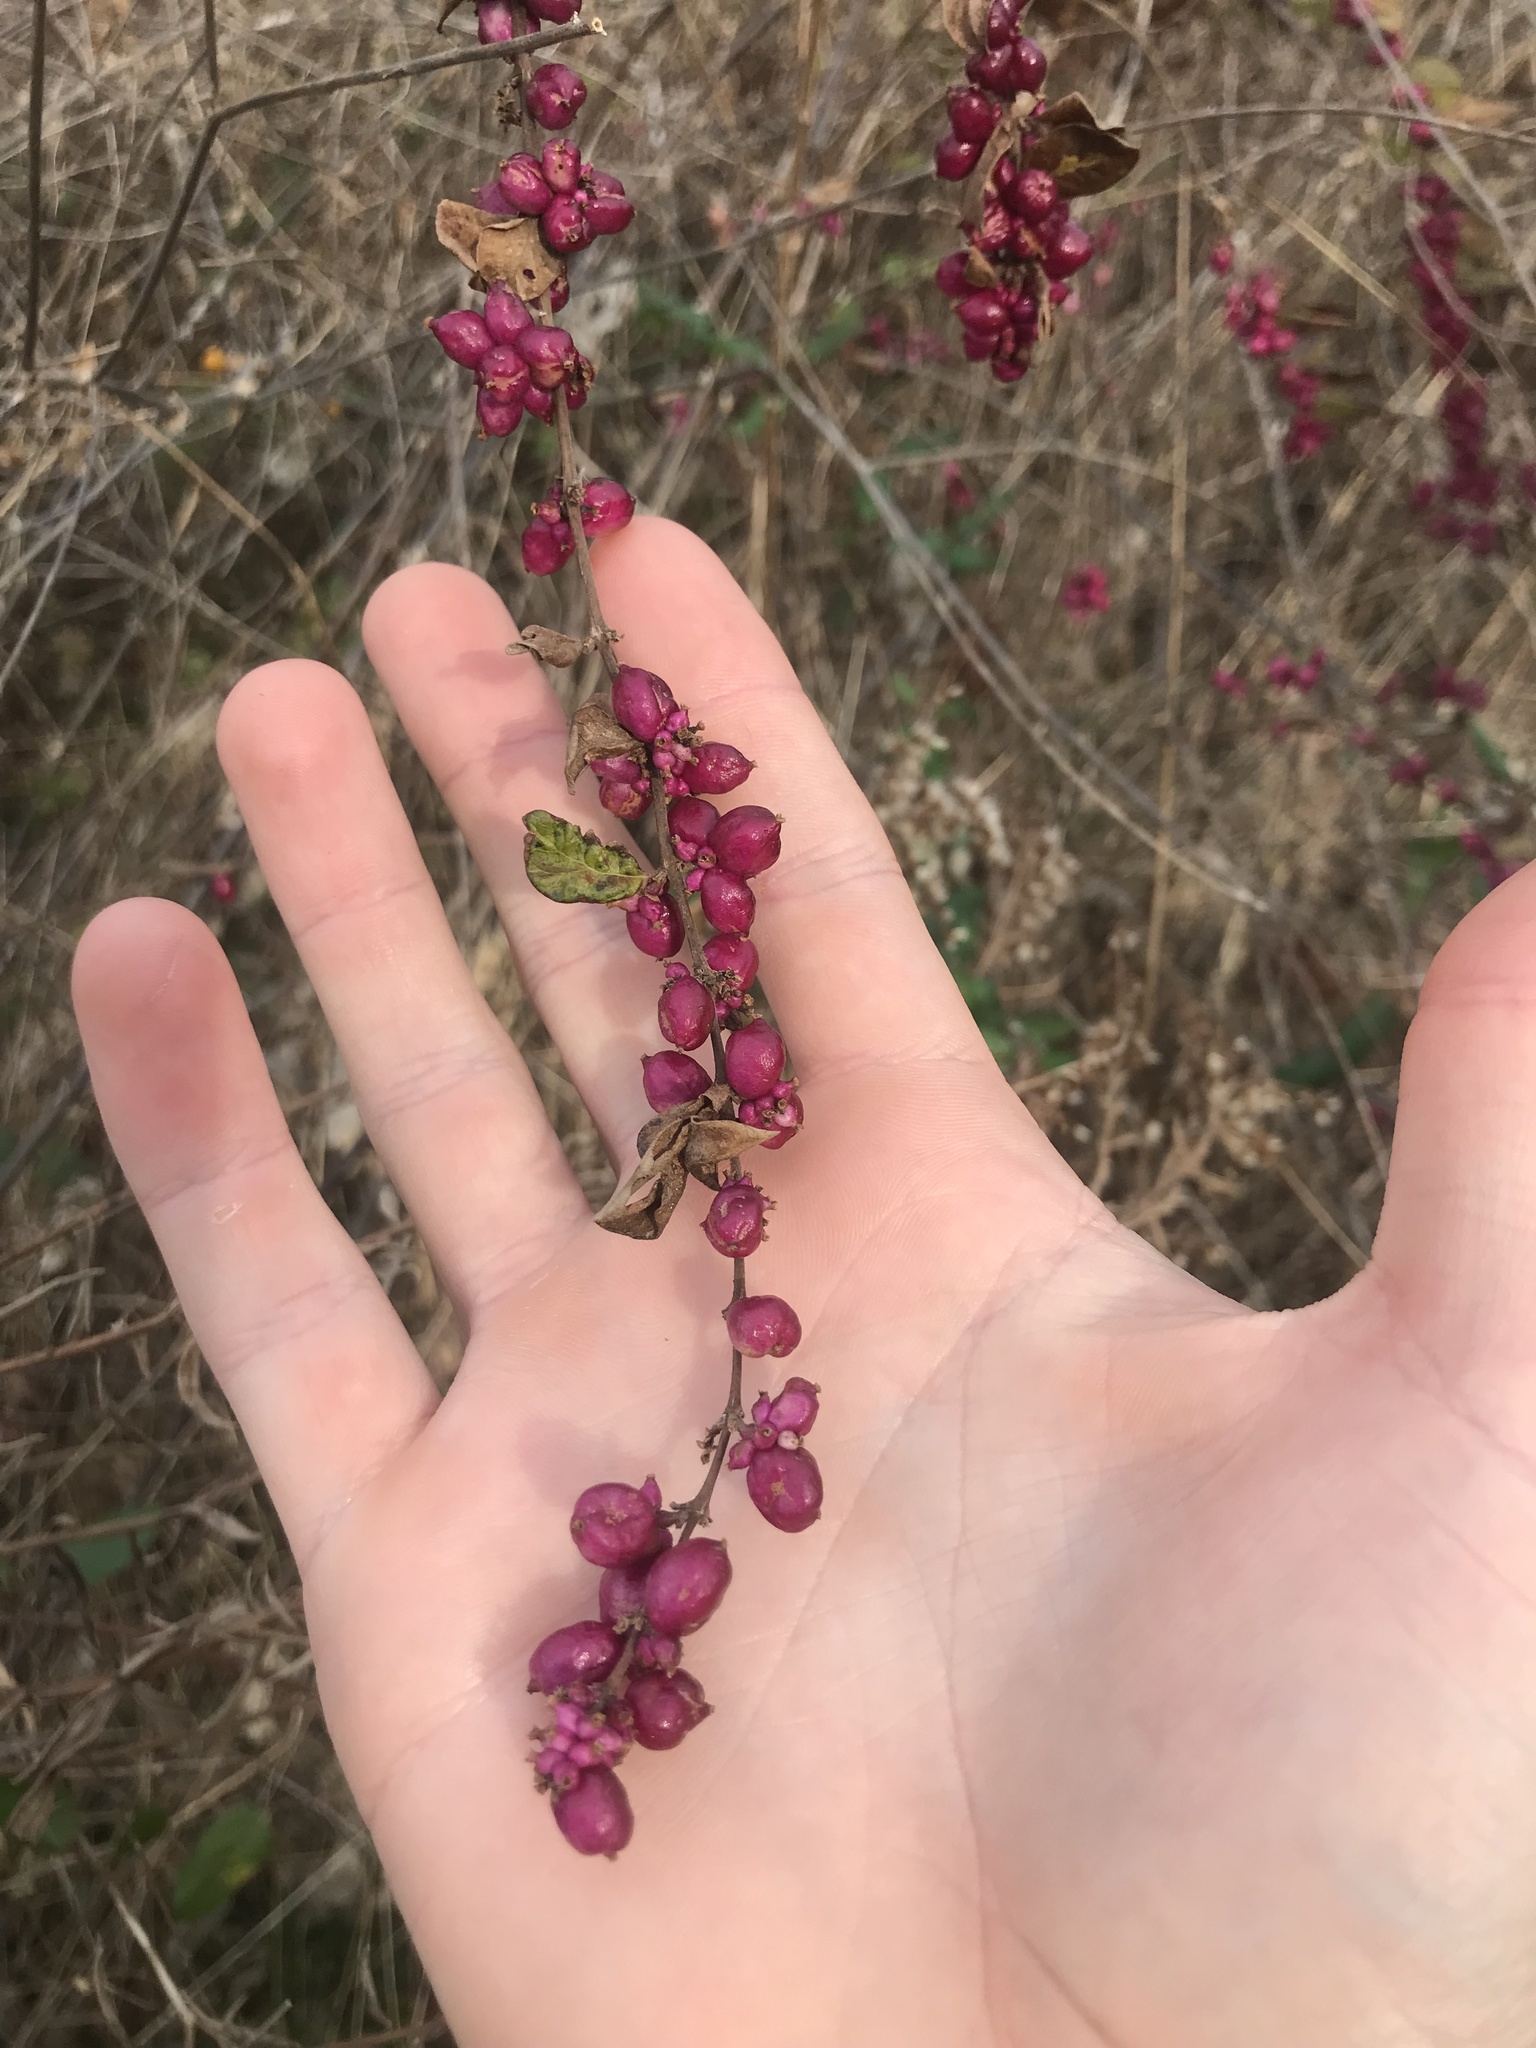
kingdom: Plantae
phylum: Tracheophyta
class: Magnoliopsida
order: Dipsacales
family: Caprifoliaceae
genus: Symphoricarpos
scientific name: Symphoricarpos orbiculatus
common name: Coralberry
